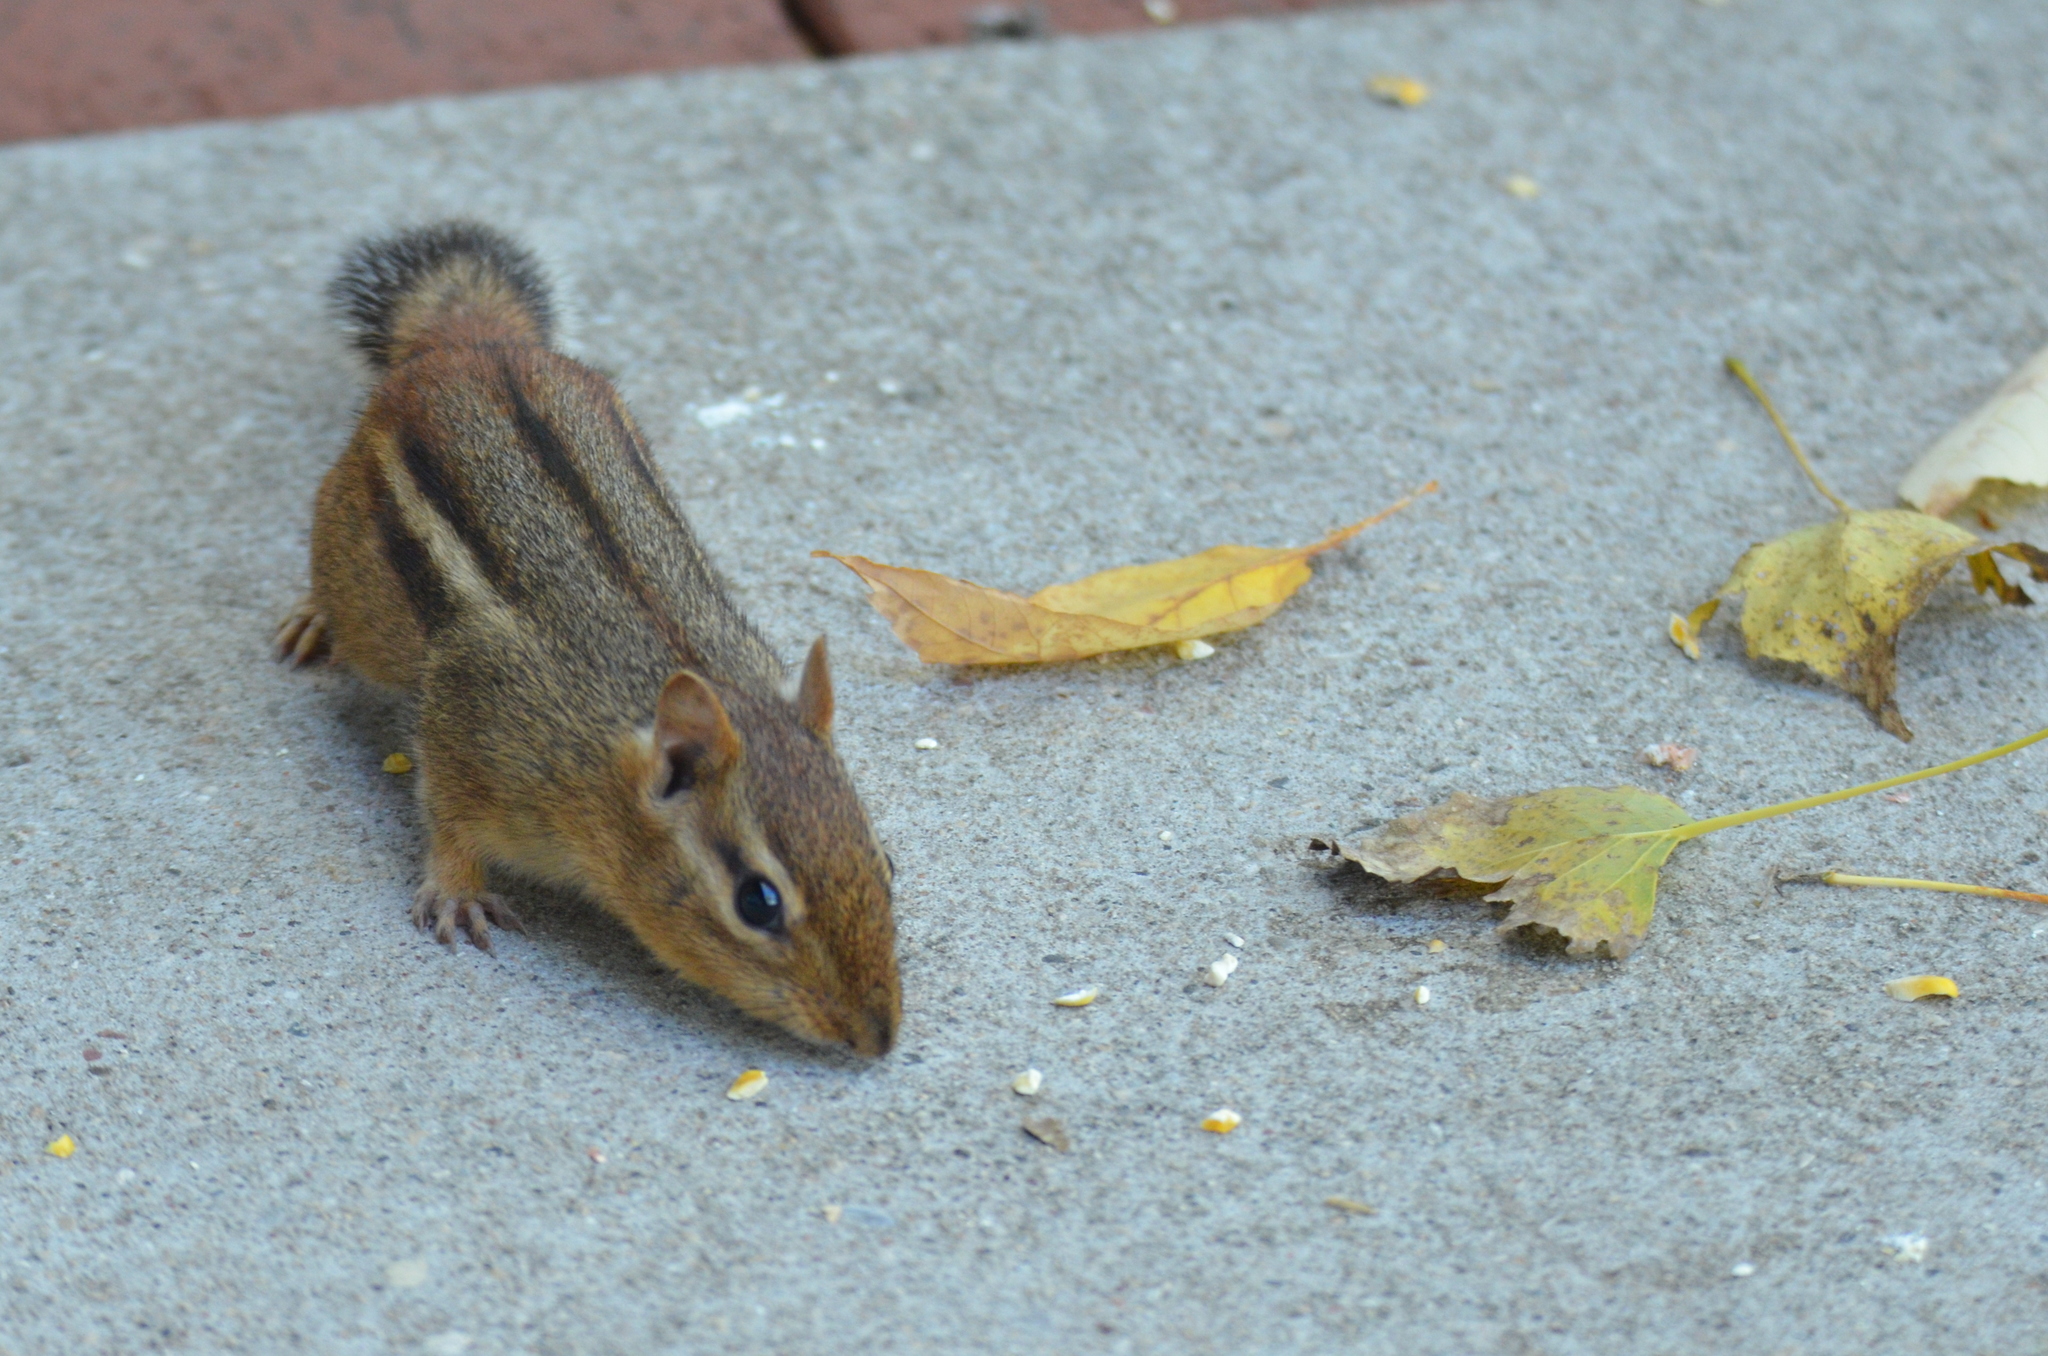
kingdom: Animalia
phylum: Chordata
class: Mammalia
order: Rodentia
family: Sciuridae
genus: Tamias
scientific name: Tamias striatus
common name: Eastern chipmunk
